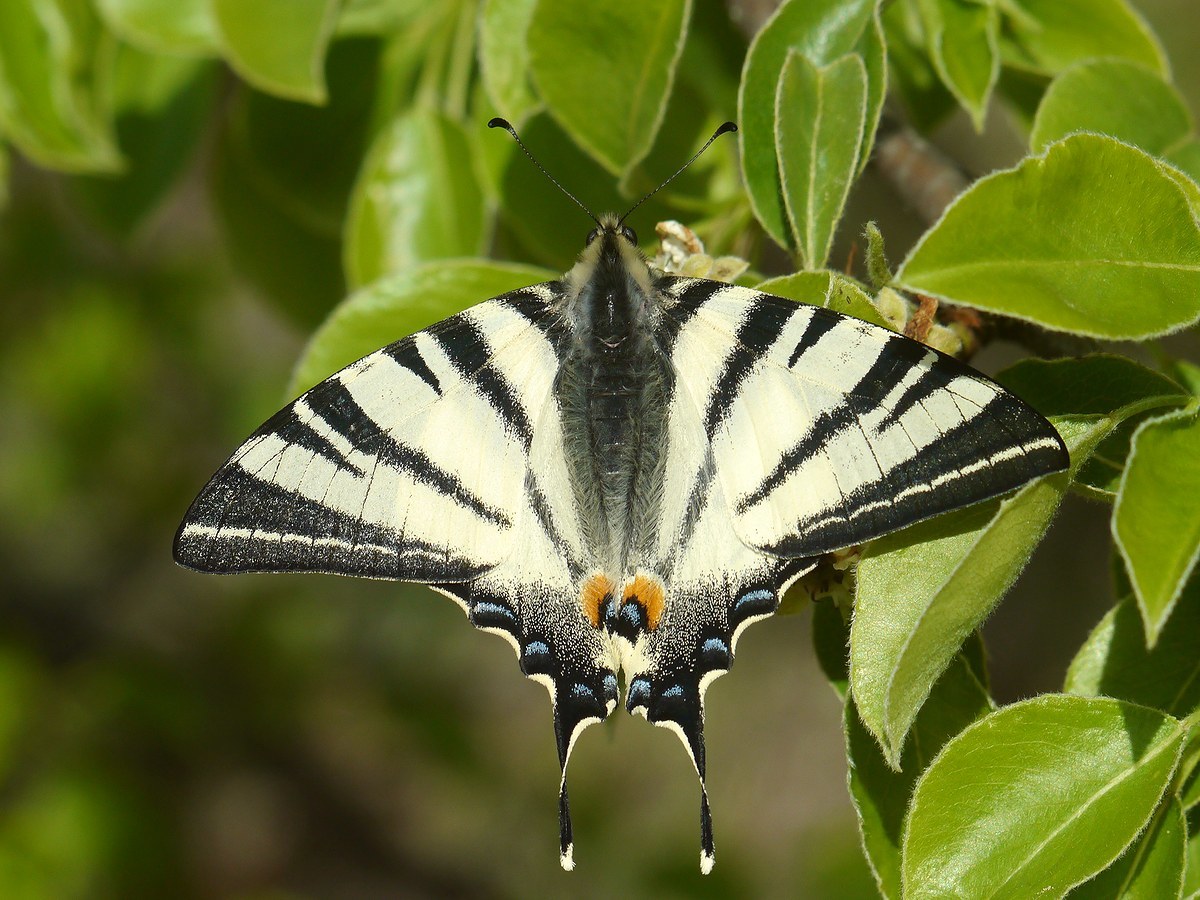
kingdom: Animalia
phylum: Arthropoda
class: Insecta
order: Lepidoptera
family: Papilionidae
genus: Iphiclides
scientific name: Iphiclides podalirius
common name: Scarce swallowtail
